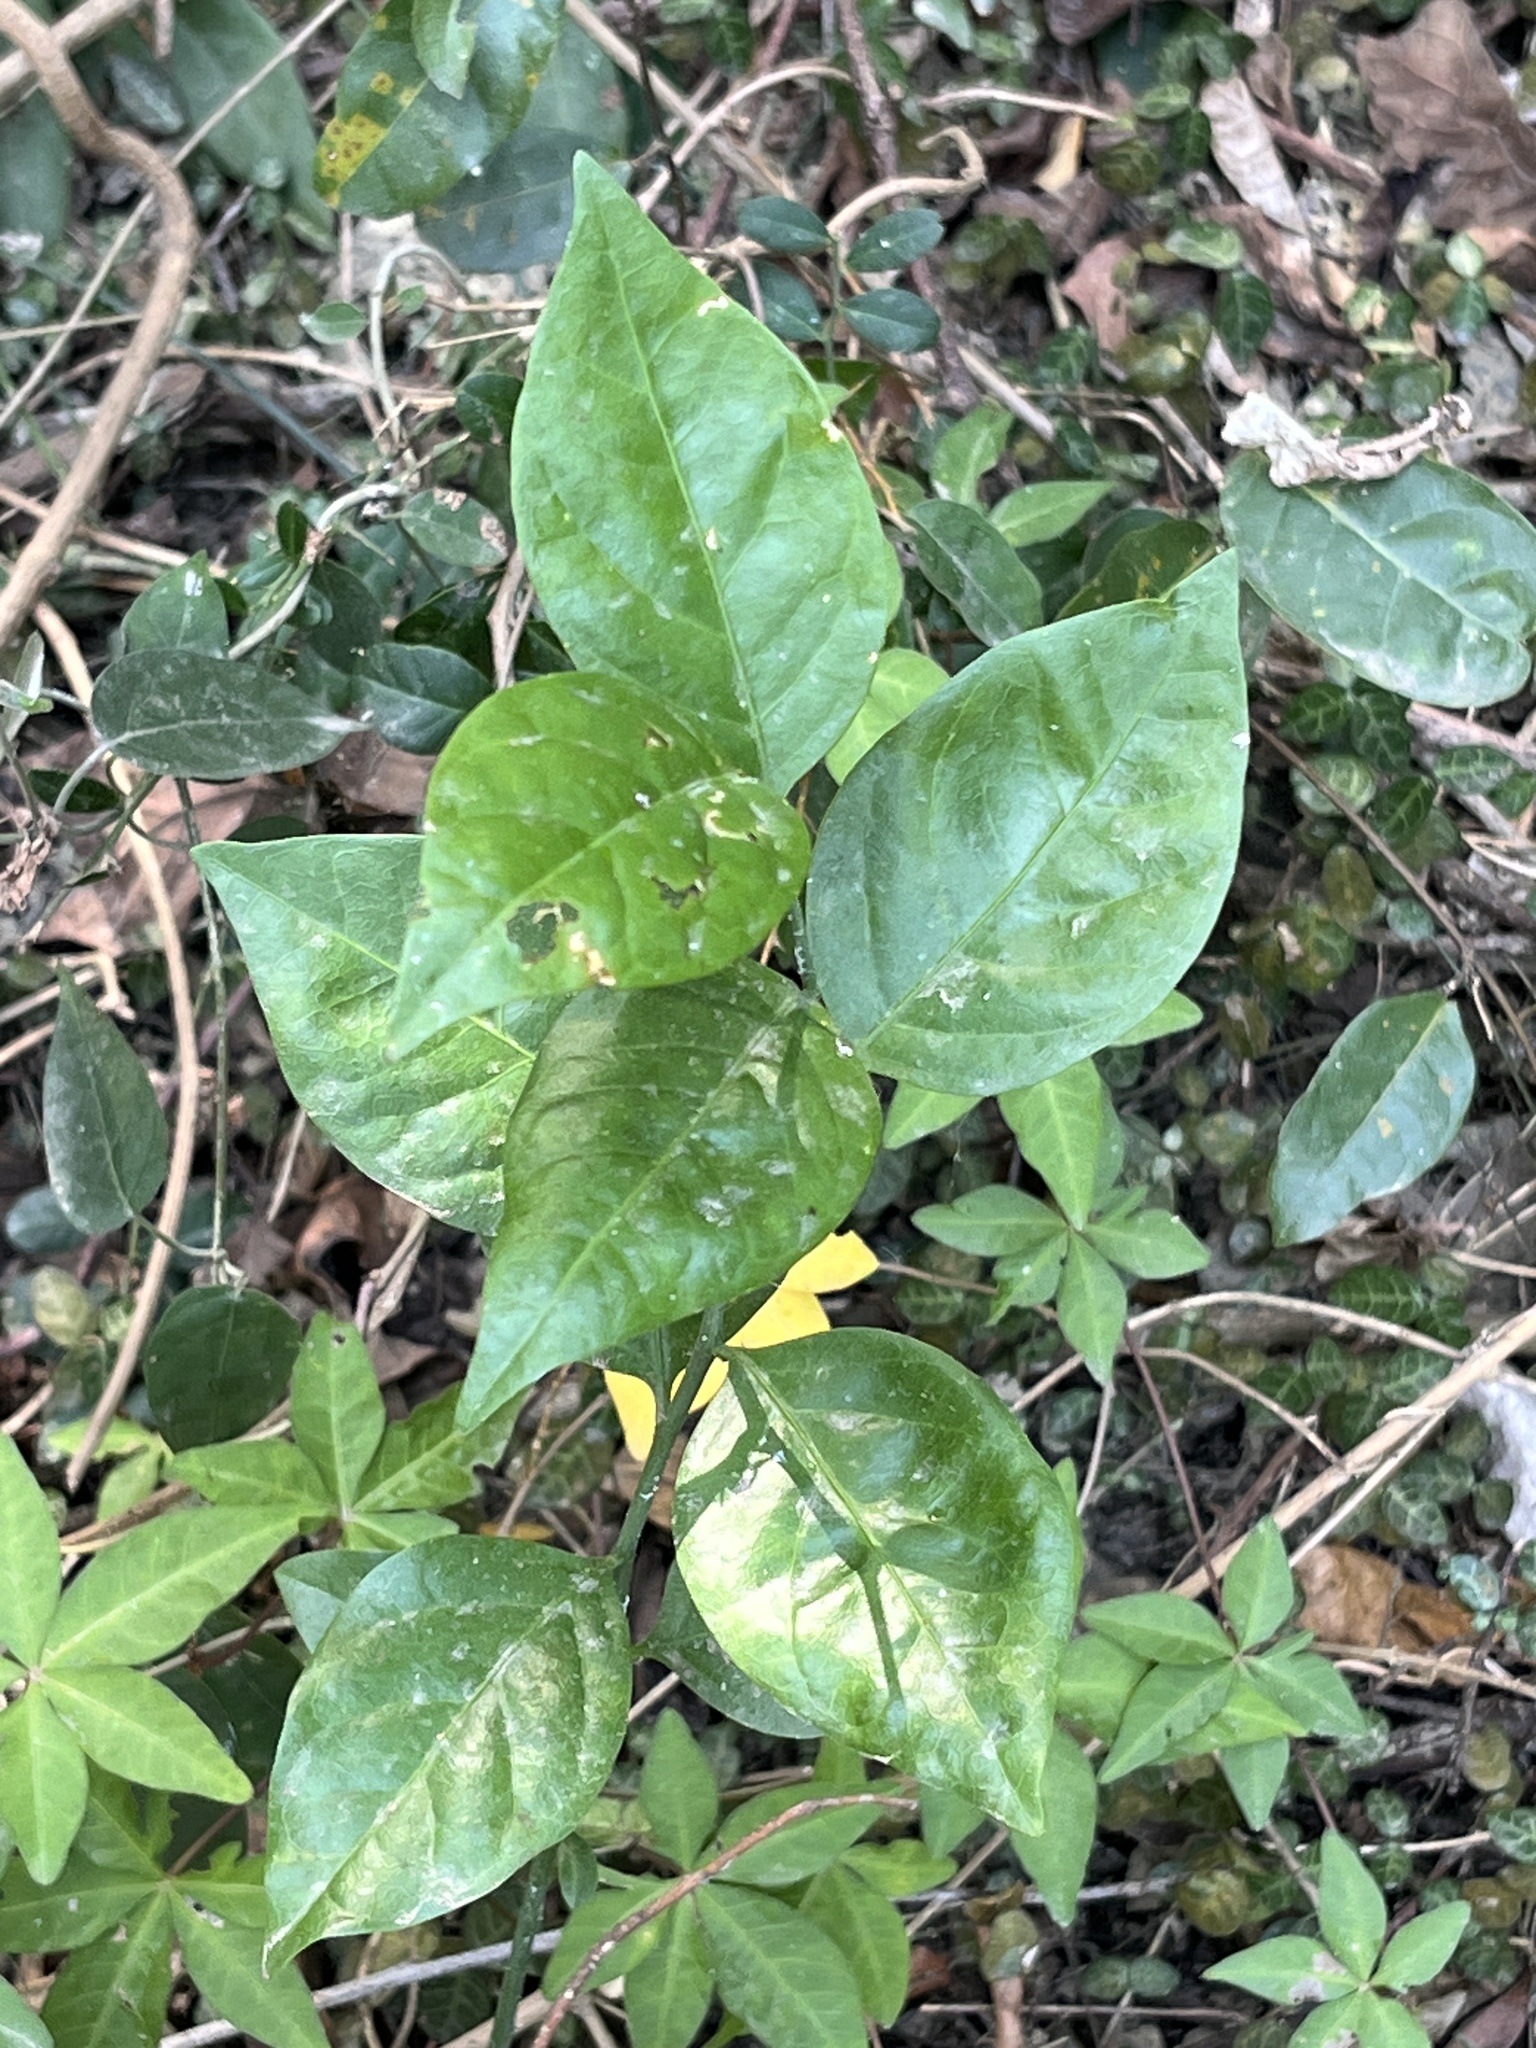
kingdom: Plantae
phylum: Tracheophyta
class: Magnoliopsida
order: Santalales
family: Opiliaceae
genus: Champereia
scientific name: Champereia manillana
